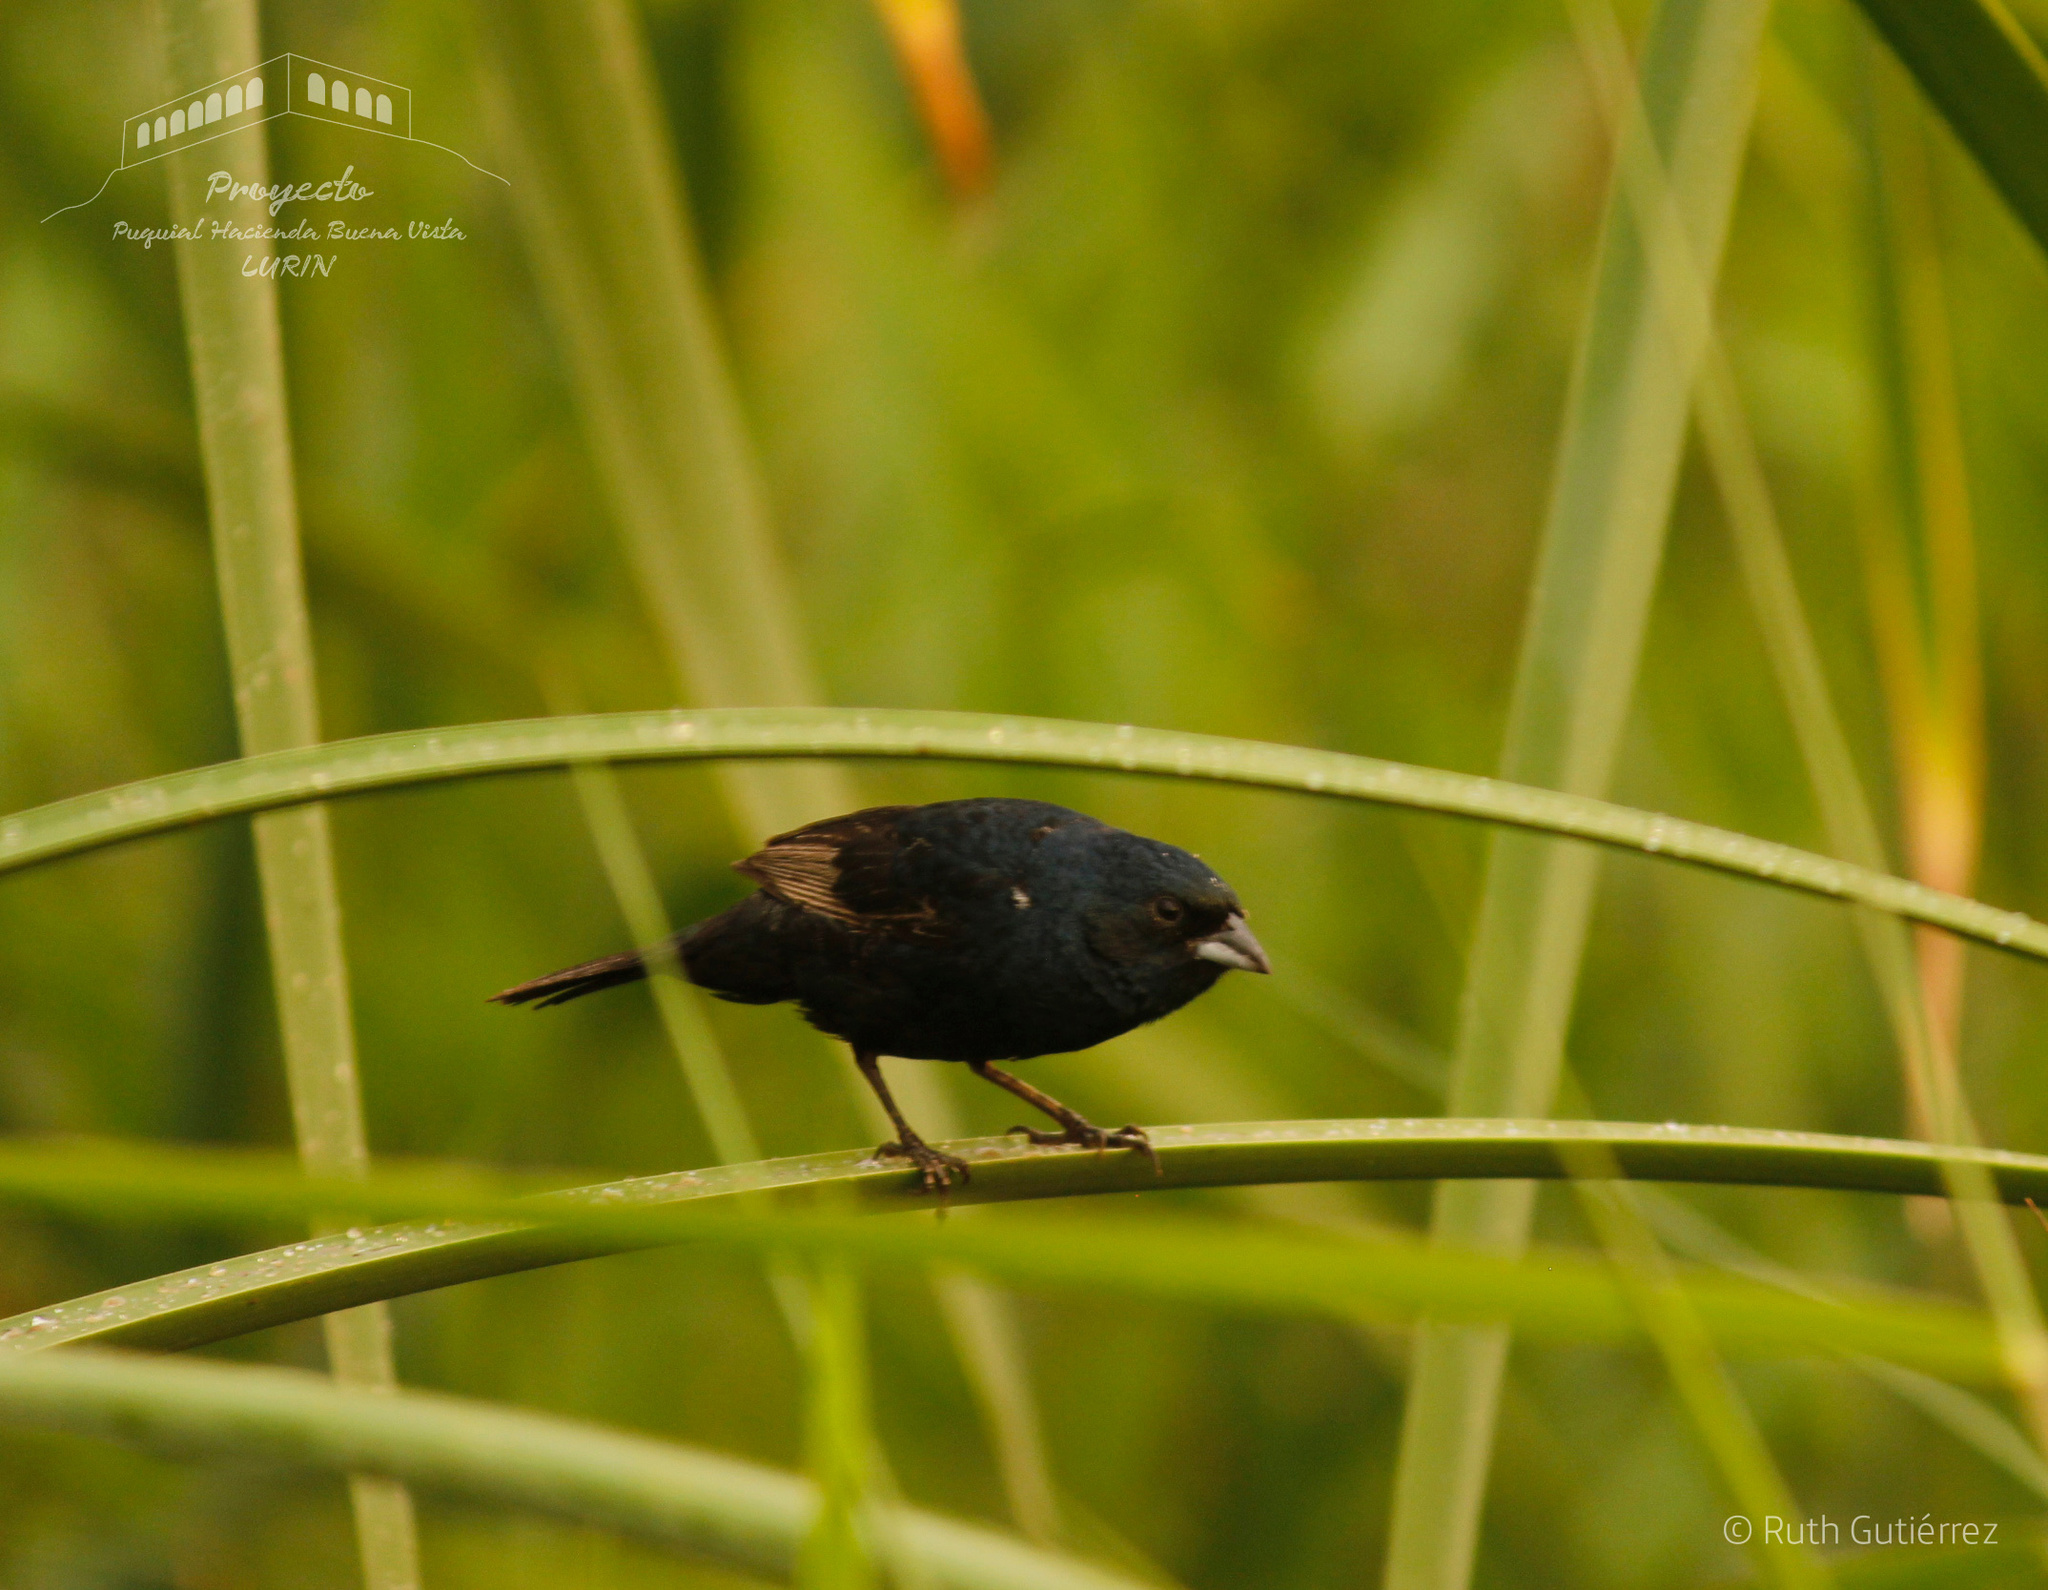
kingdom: Animalia
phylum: Chordata
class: Aves
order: Passeriformes
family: Thraupidae
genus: Volatinia
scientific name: Volatinia jacarina
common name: Blue-black grassquit
